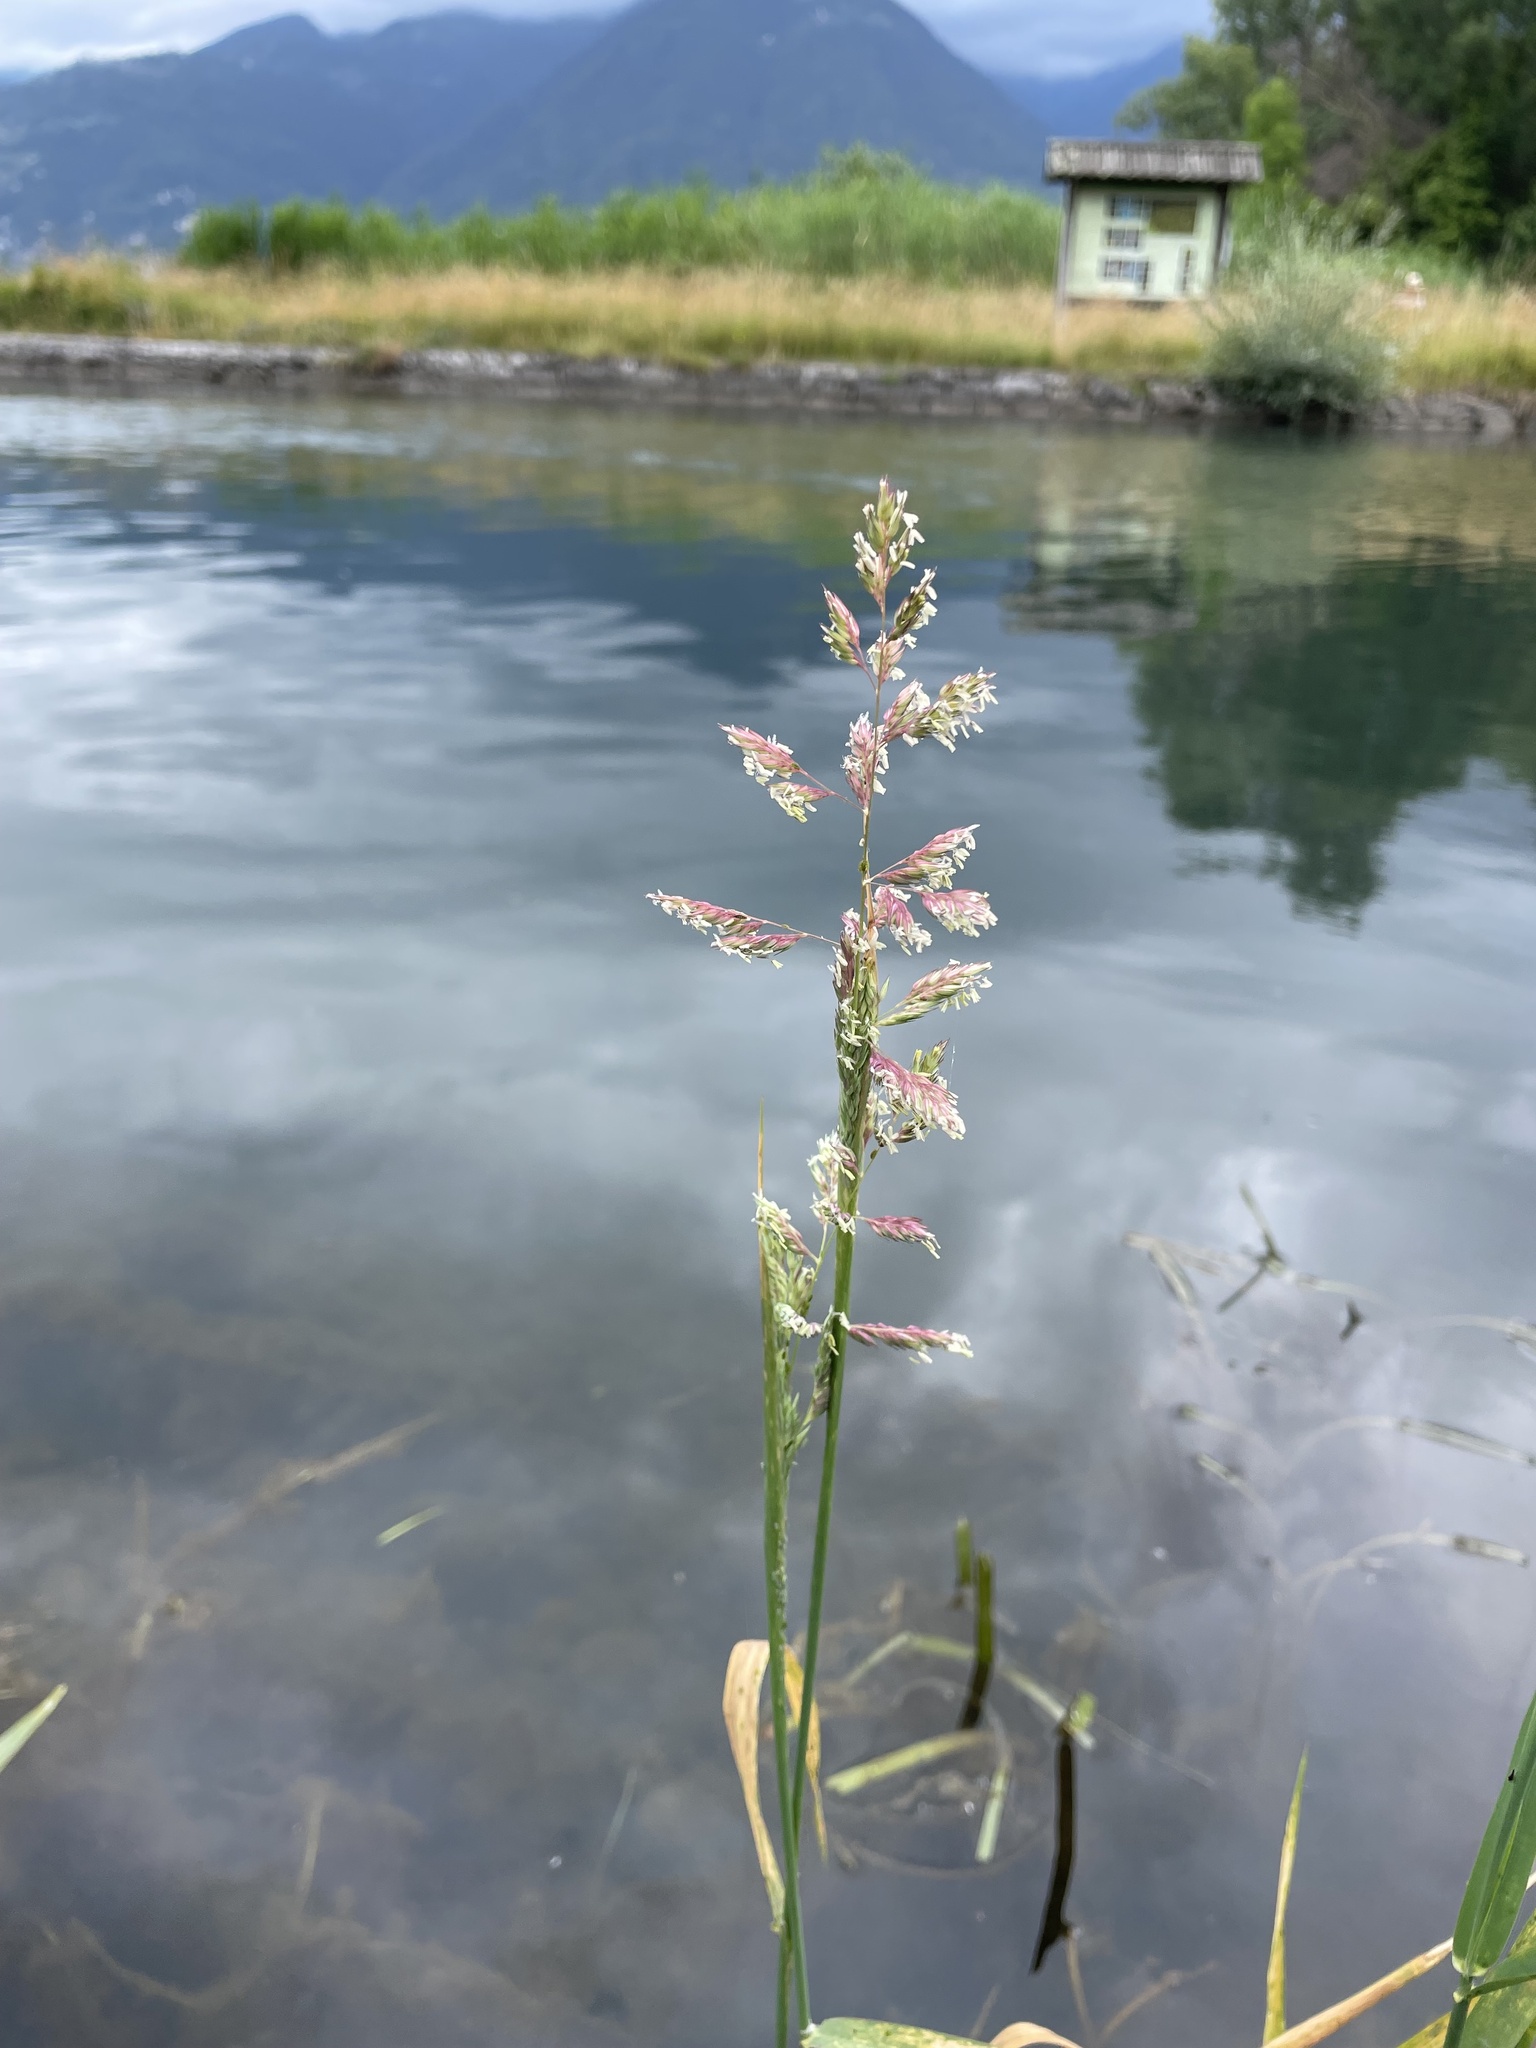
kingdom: Plantae
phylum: Tracheophyta
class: Liliopsida
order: Poales
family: Poaceae
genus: Phalaris
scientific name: Phalaris arundinacea
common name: Reed canary-grass
